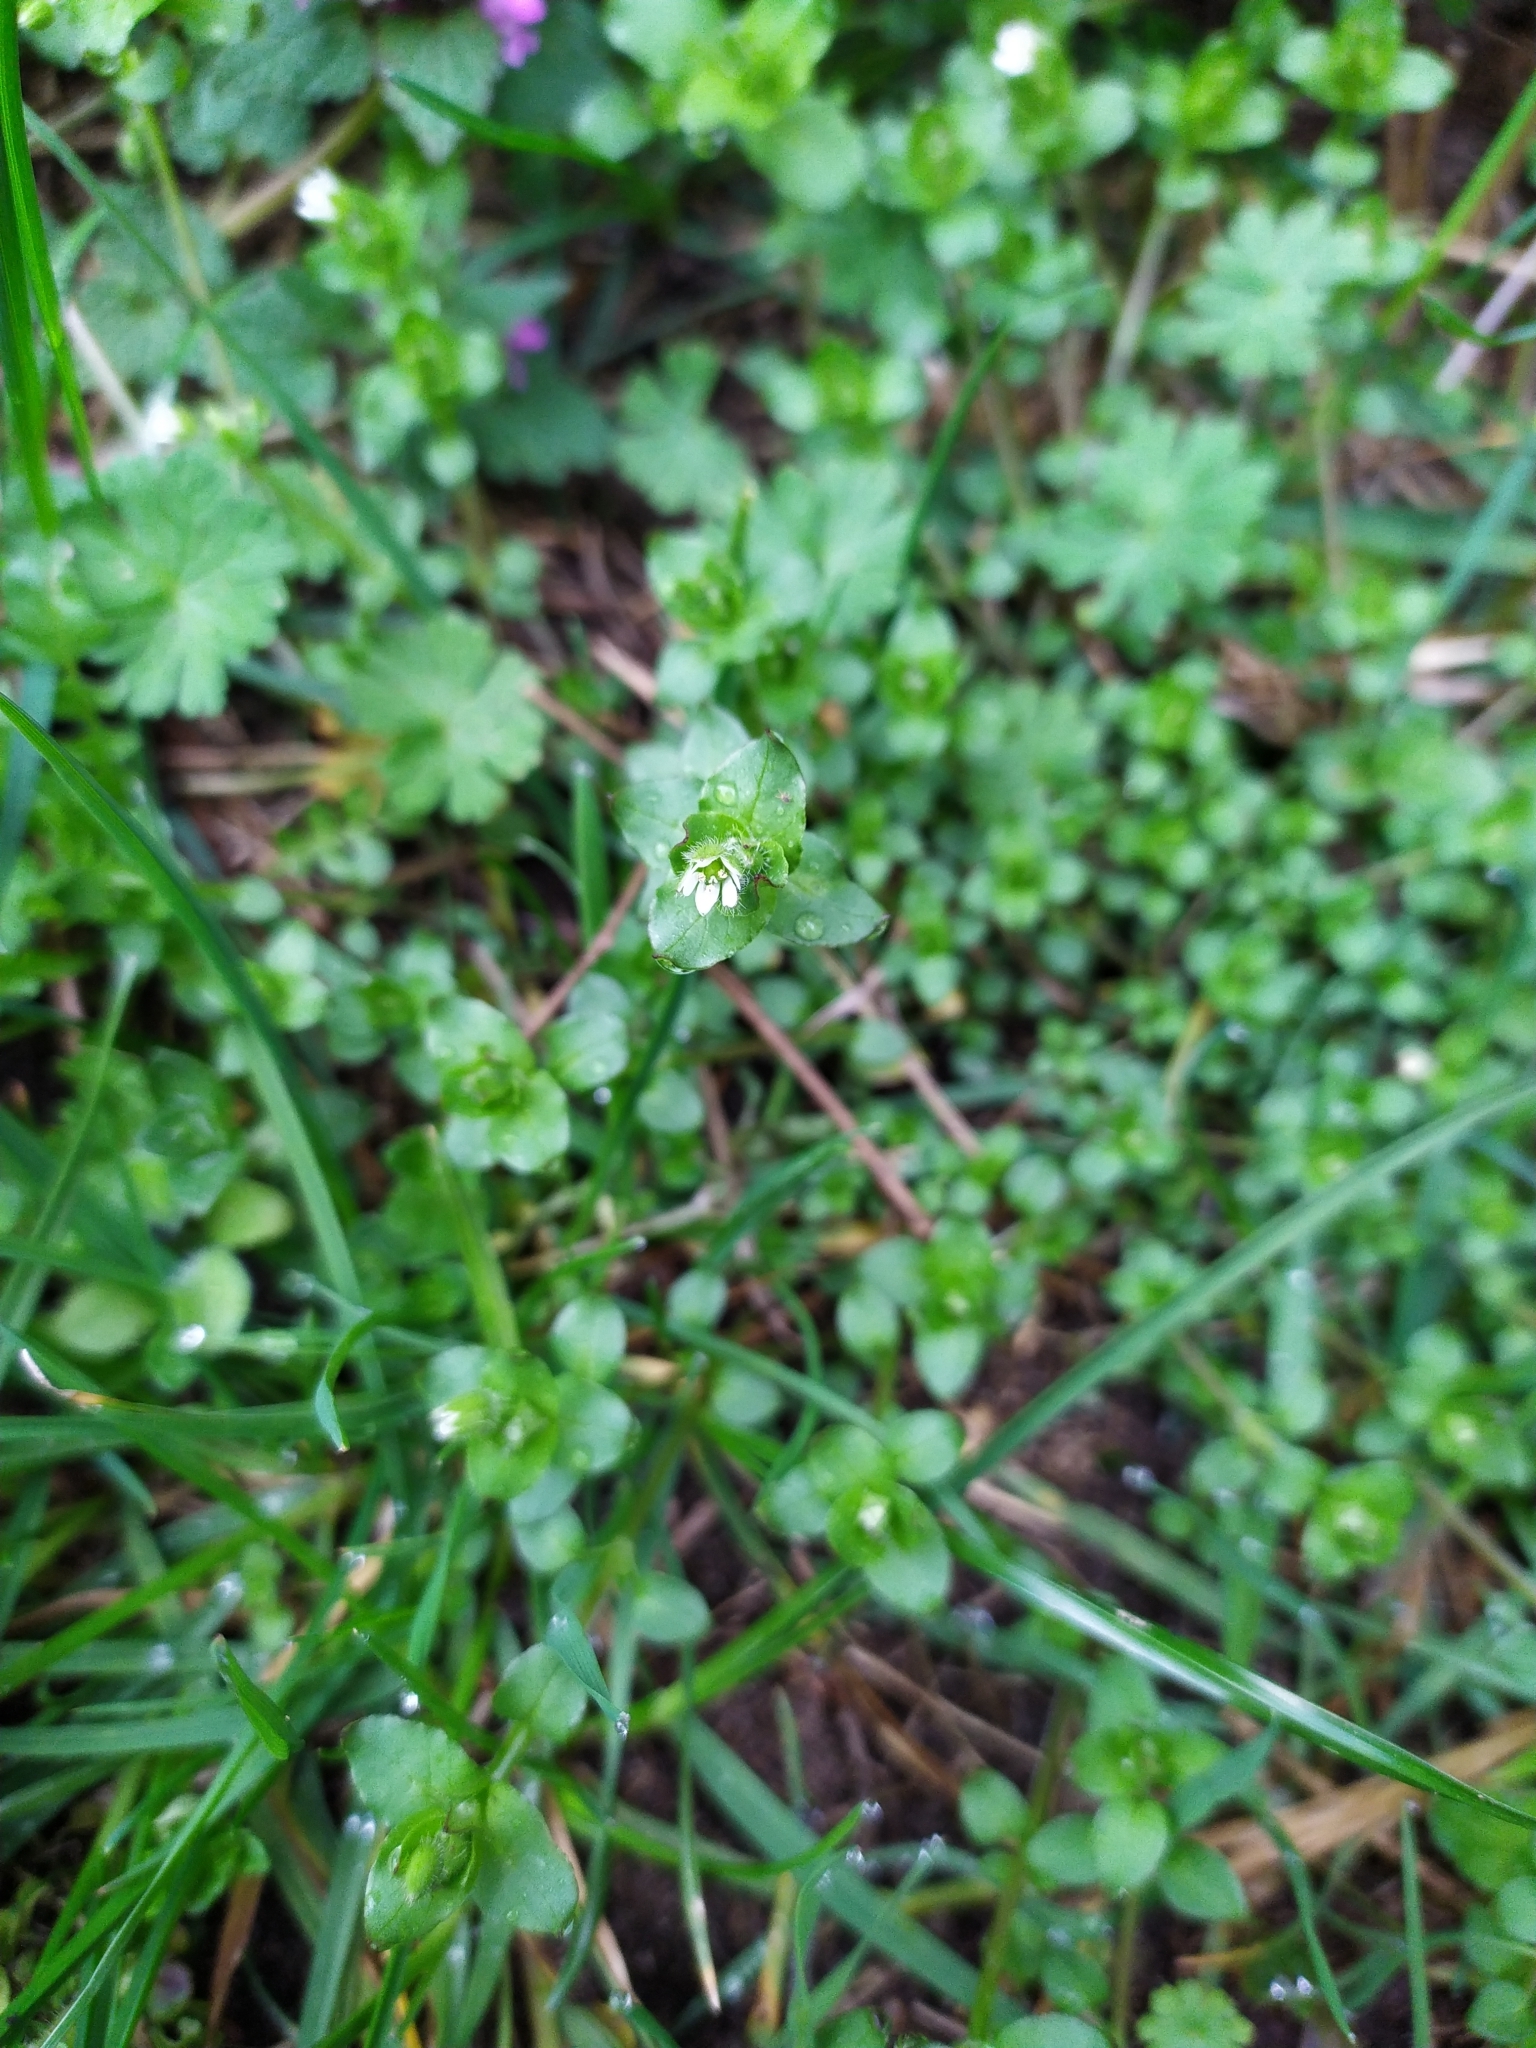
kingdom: Plantae
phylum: Tracheophyta
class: Magnoliopsida
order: Caryophyllales
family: Caryophyllaceae
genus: Stellaria
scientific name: Stellaria media
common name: Common chickweed
